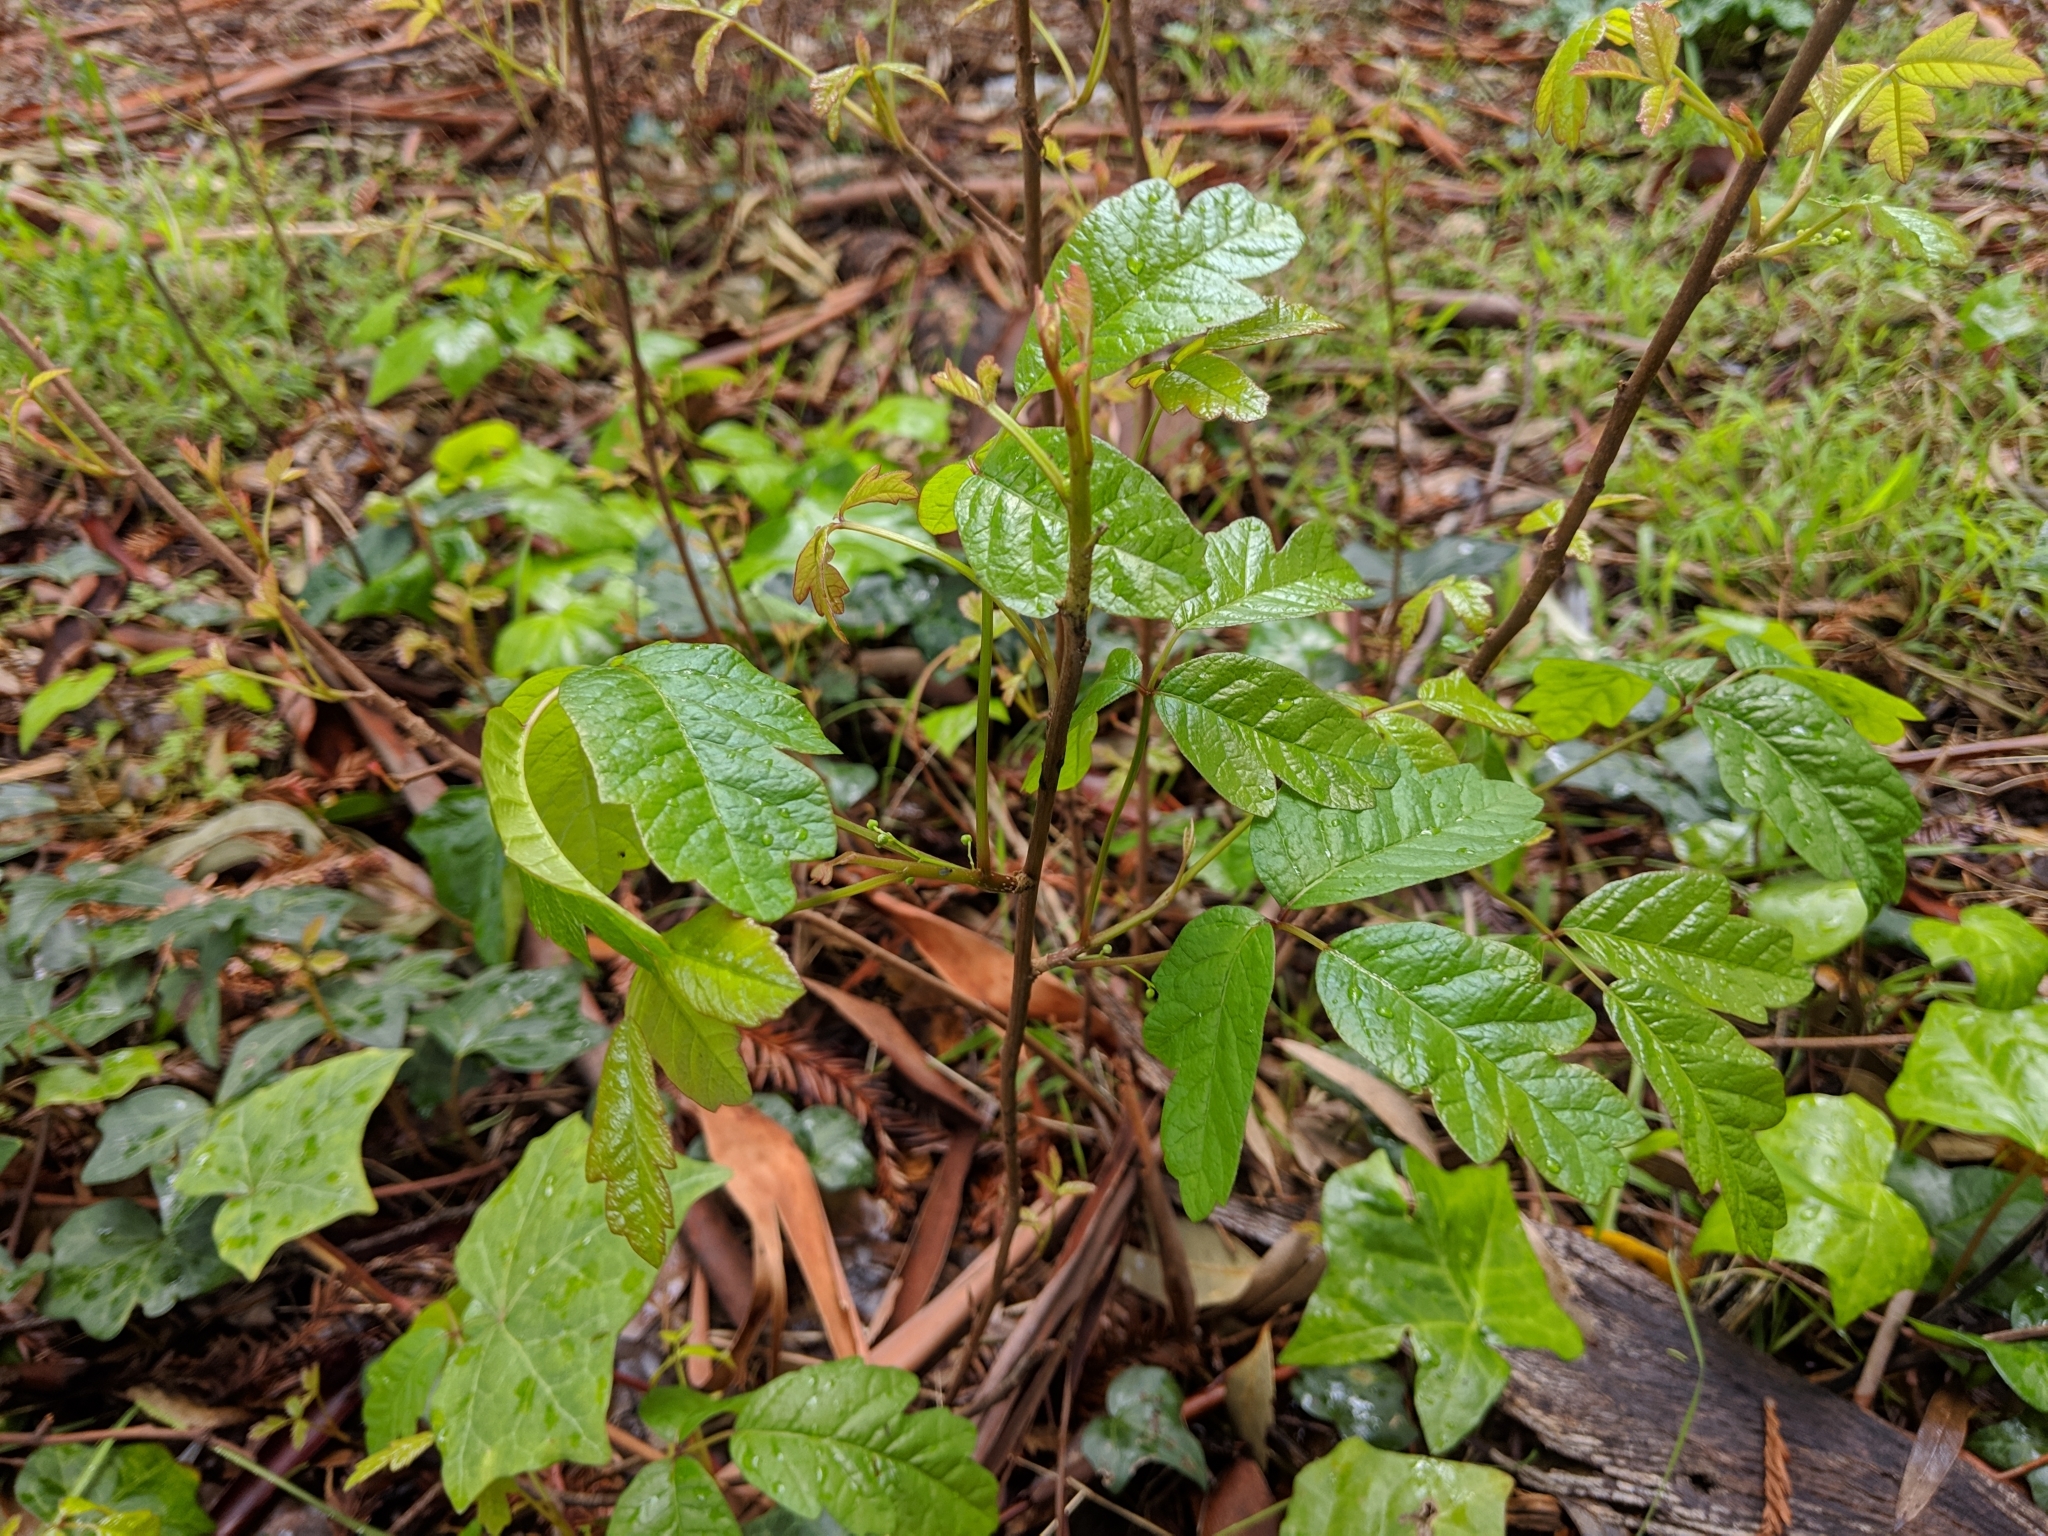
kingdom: Plantae
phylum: Tracheophyta
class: Magnoliopsida
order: Sapindales
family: Anacardiaceae
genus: Toxicodendron
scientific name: Toxicodendron diversilobum
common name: Pacific poison-oak
